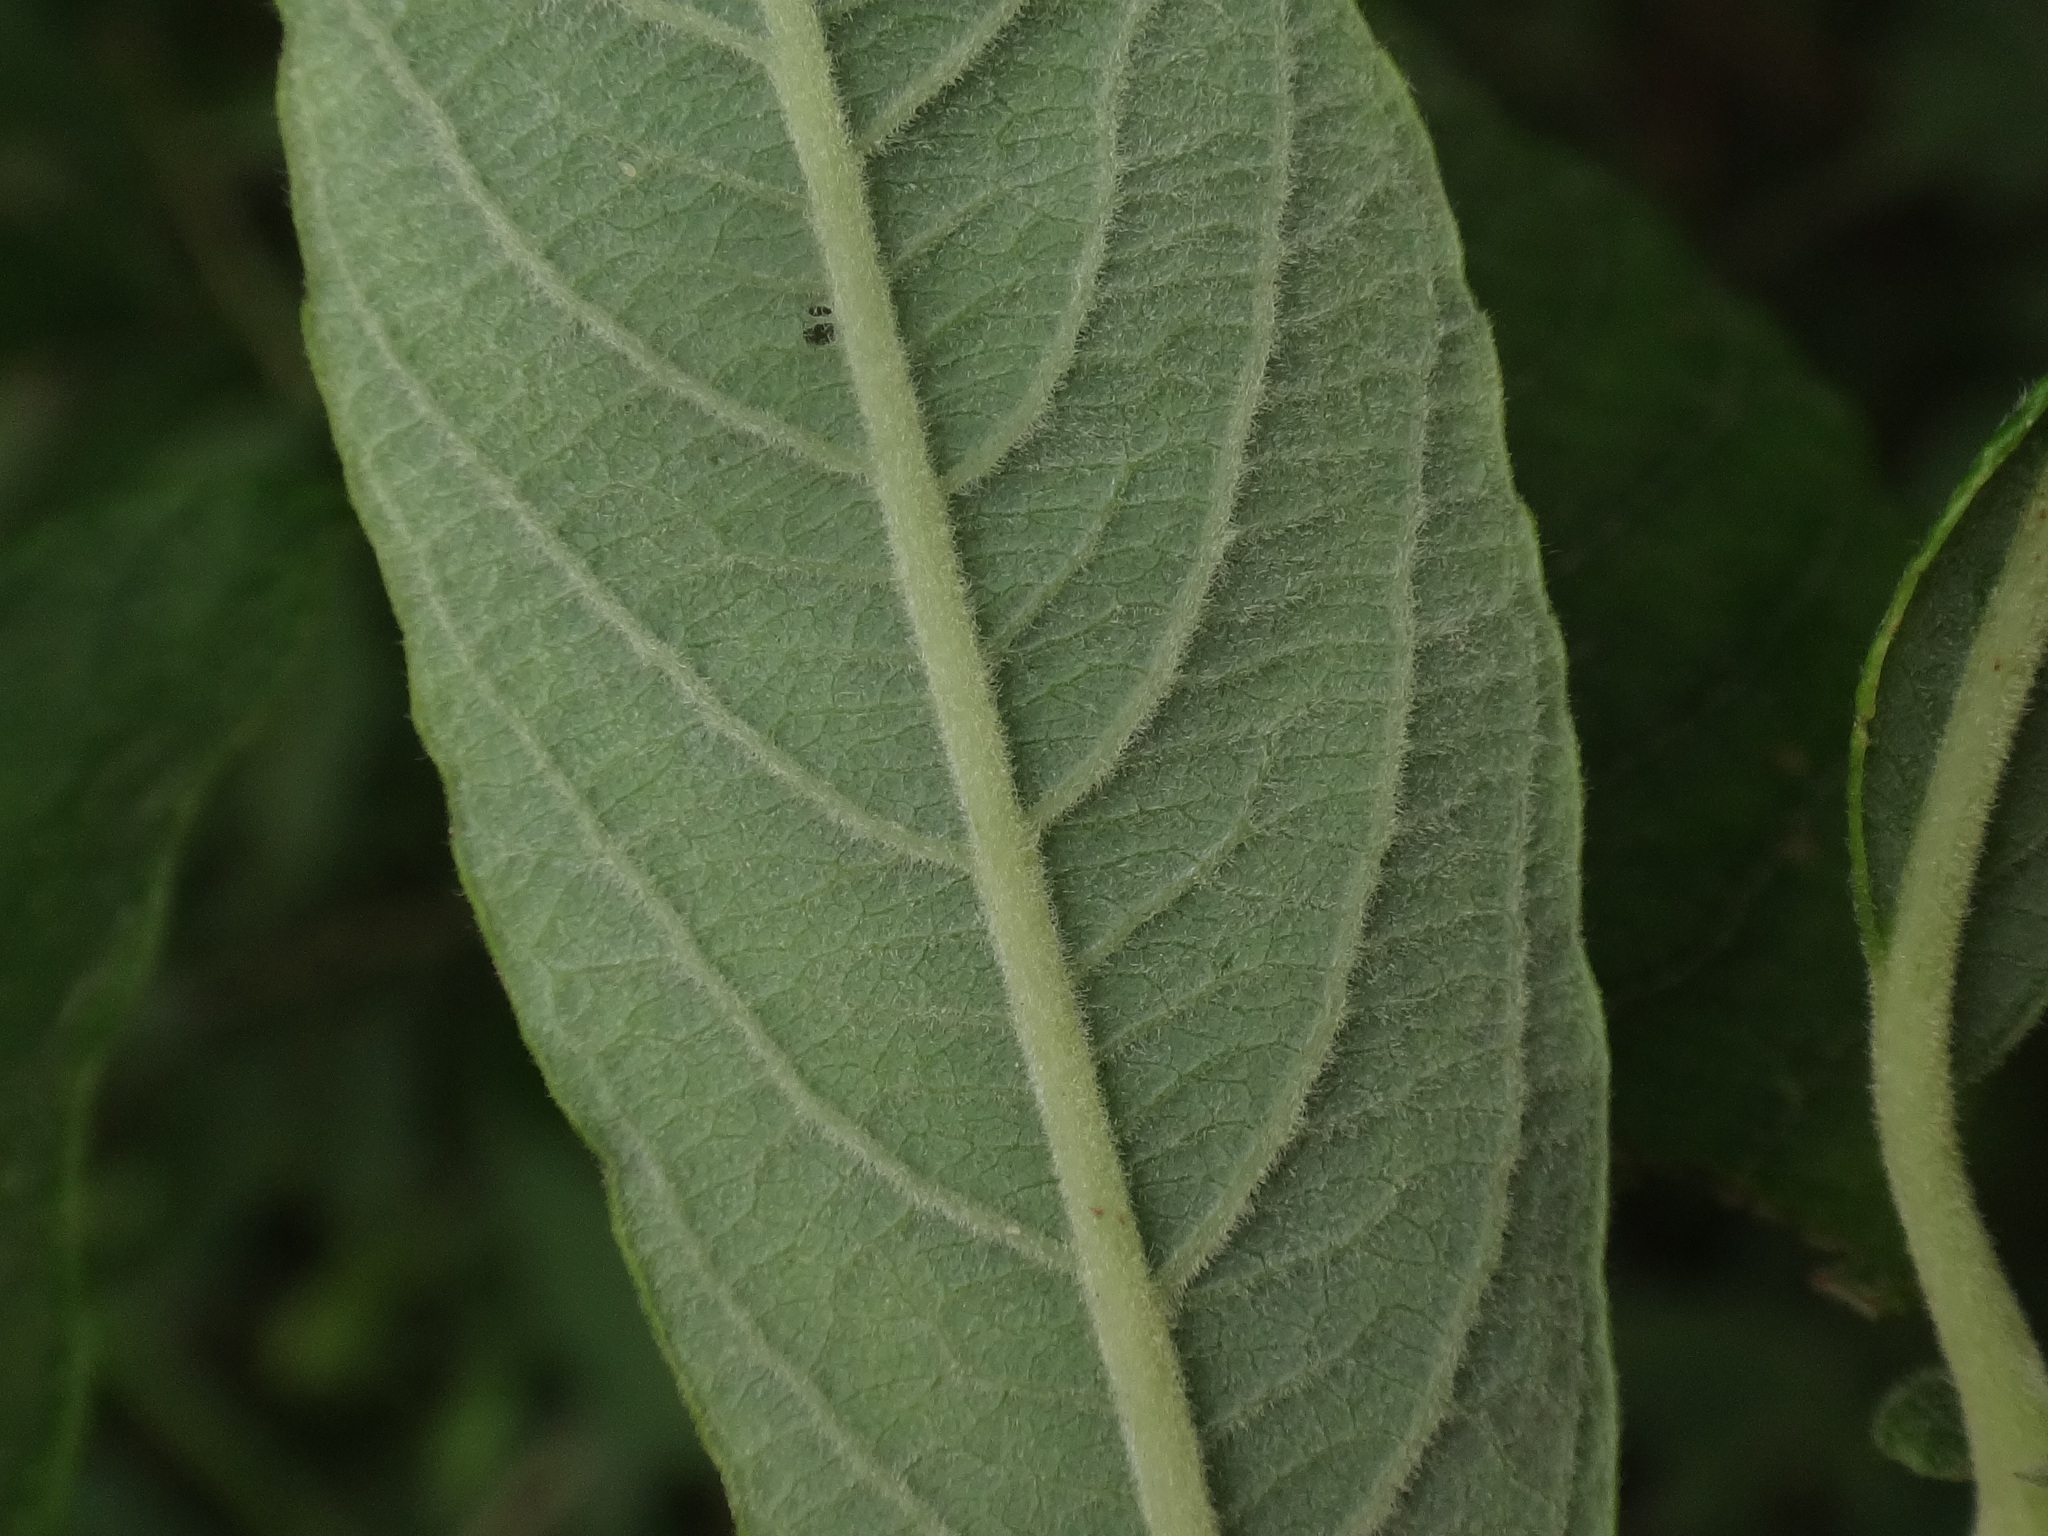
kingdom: Plantae
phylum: Tracheophyta
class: Magnoliopsida
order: Malpighiales
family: Salicaceae
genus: Salix
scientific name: Salix cinerea
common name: Common sallow
